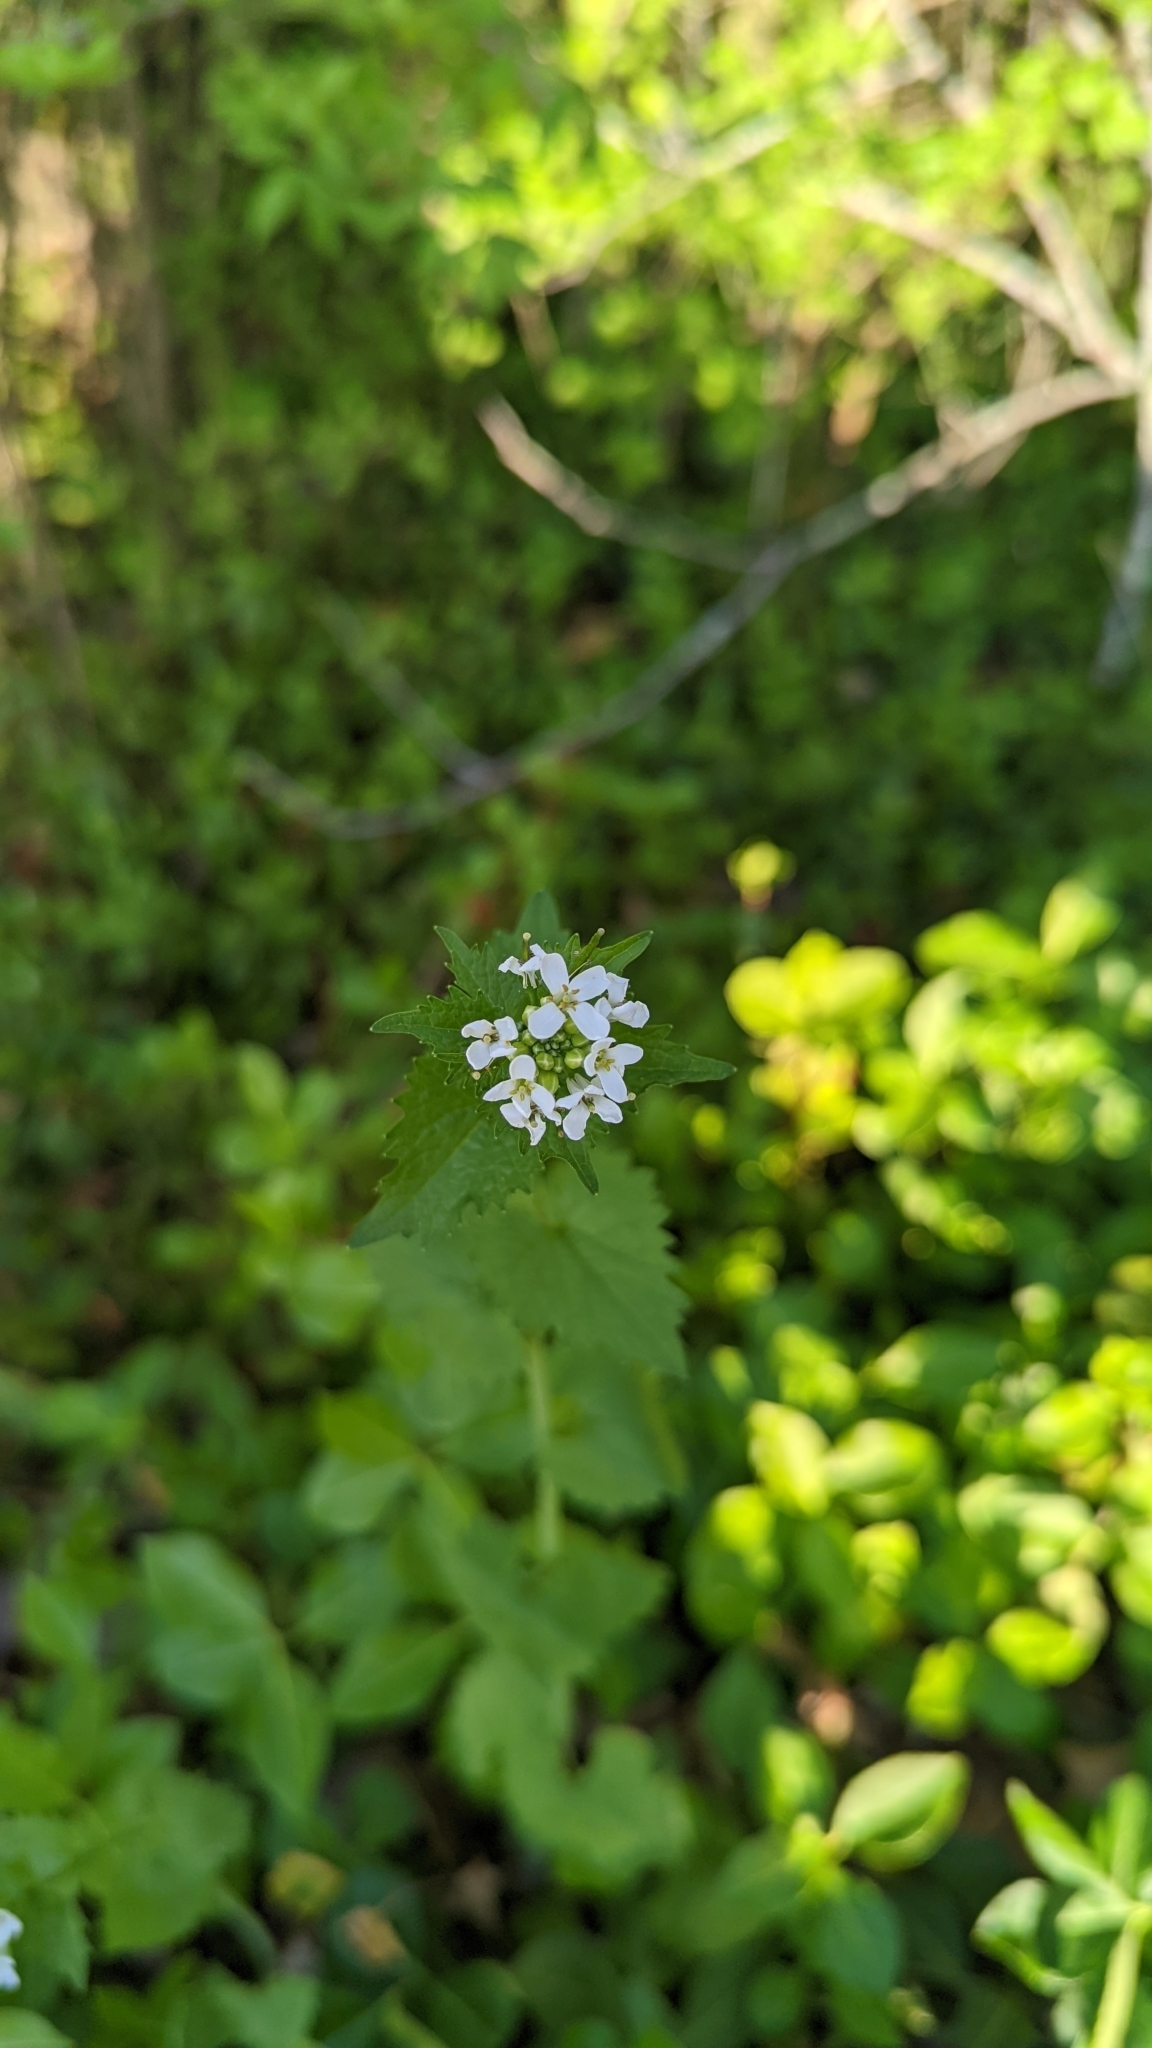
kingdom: Plantae
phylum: Tracheophyta
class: Magnoliopsida
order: Brassicales
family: Brassicaceae
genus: Alliaria
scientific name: Alliaria petiolata
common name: Garlic mustard
